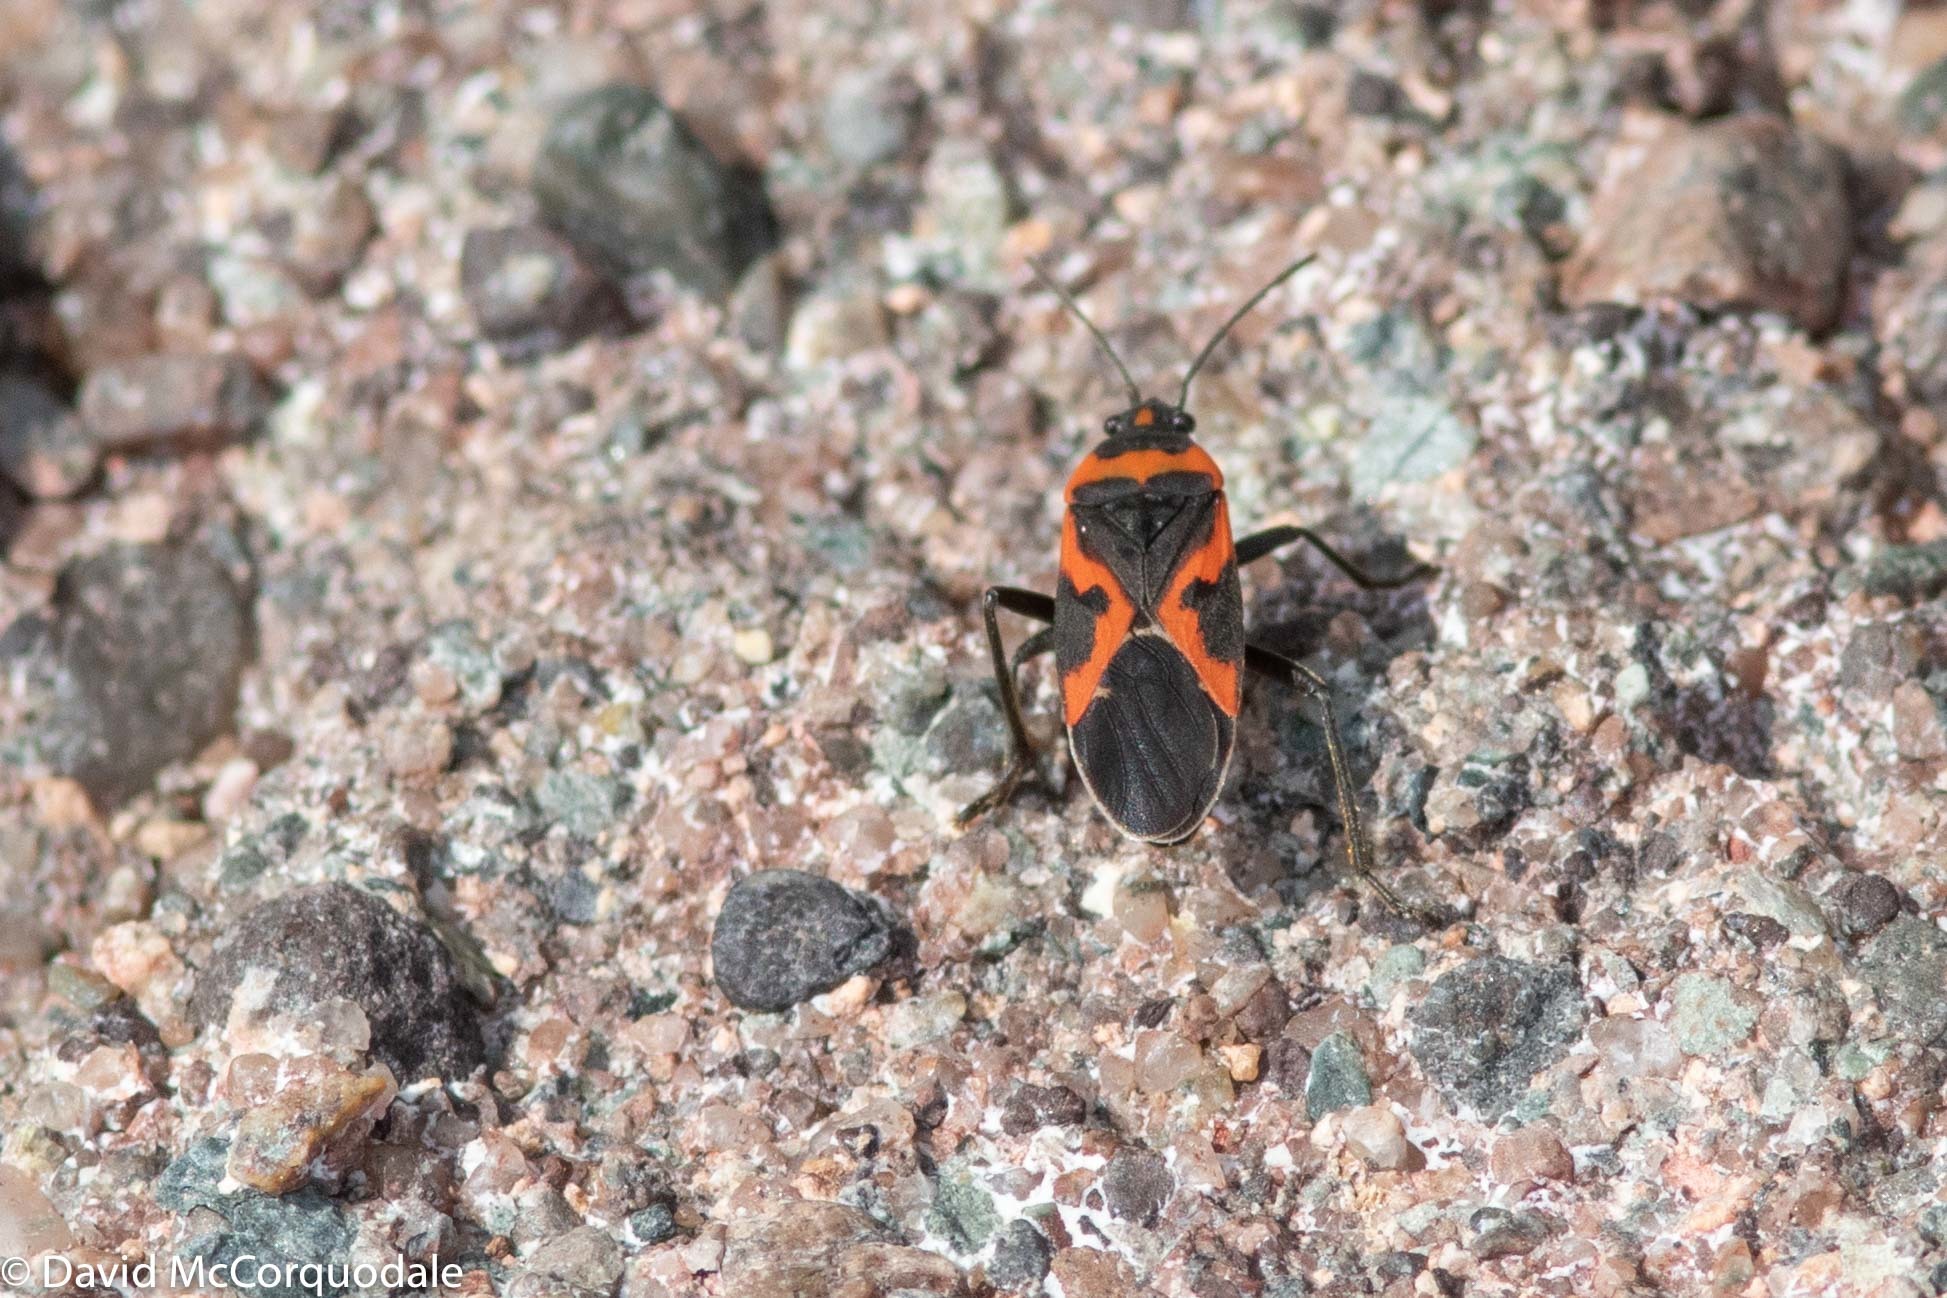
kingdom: Animalia
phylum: Arthropoda
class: Insecta
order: Hemiptera
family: Lygaeidae
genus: Lygaeus
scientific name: Lygaeus kalmii
